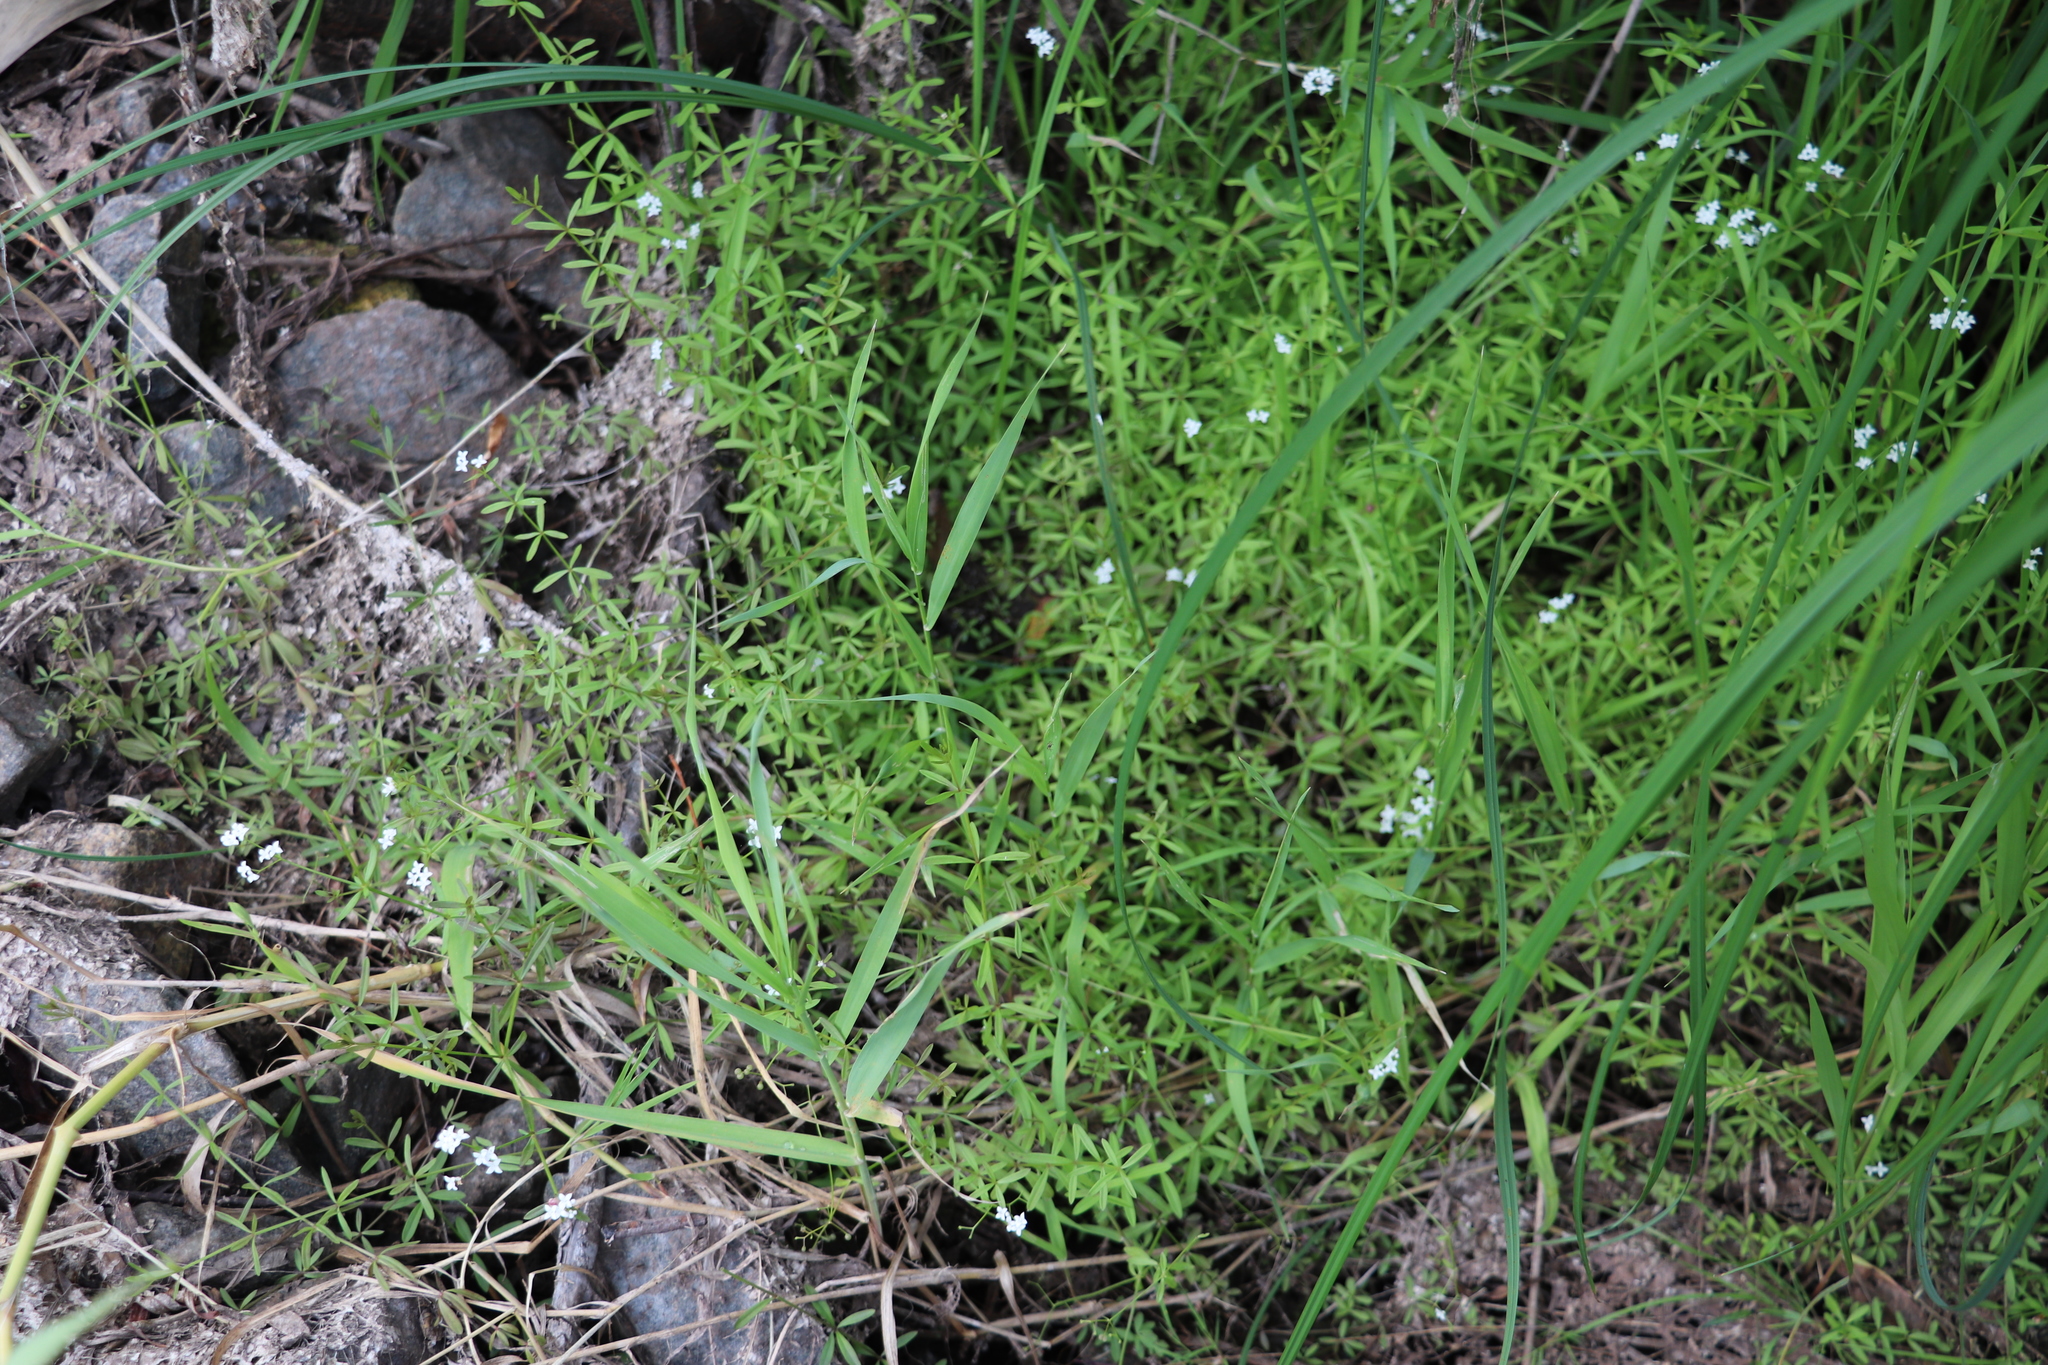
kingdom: Plantae
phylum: Tracheophyta
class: Magnoliopsida
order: Gentianales
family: Rubiaceae
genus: Galium
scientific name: Galium palustre
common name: Common marsh-bedstraw
